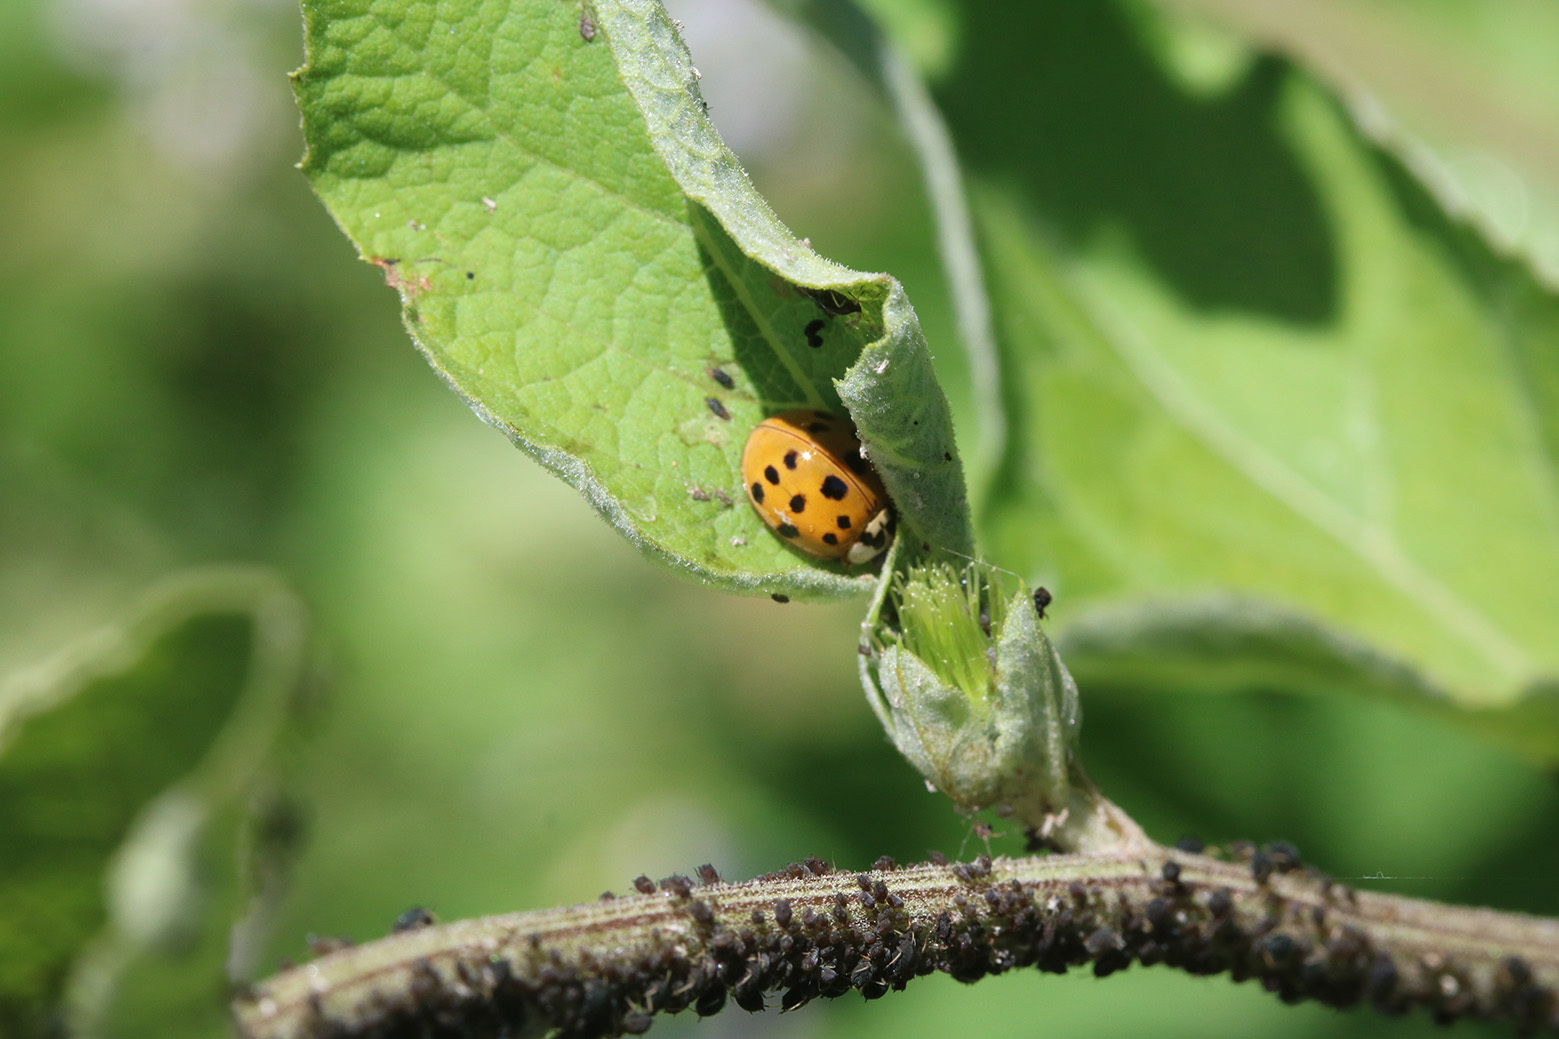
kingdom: Animalia
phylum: Arthropoda
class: Insecta
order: Coleoptera
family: Coccinellidae
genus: Harmonia
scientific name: Harmonia axyridis
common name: Harlequin ladybird
